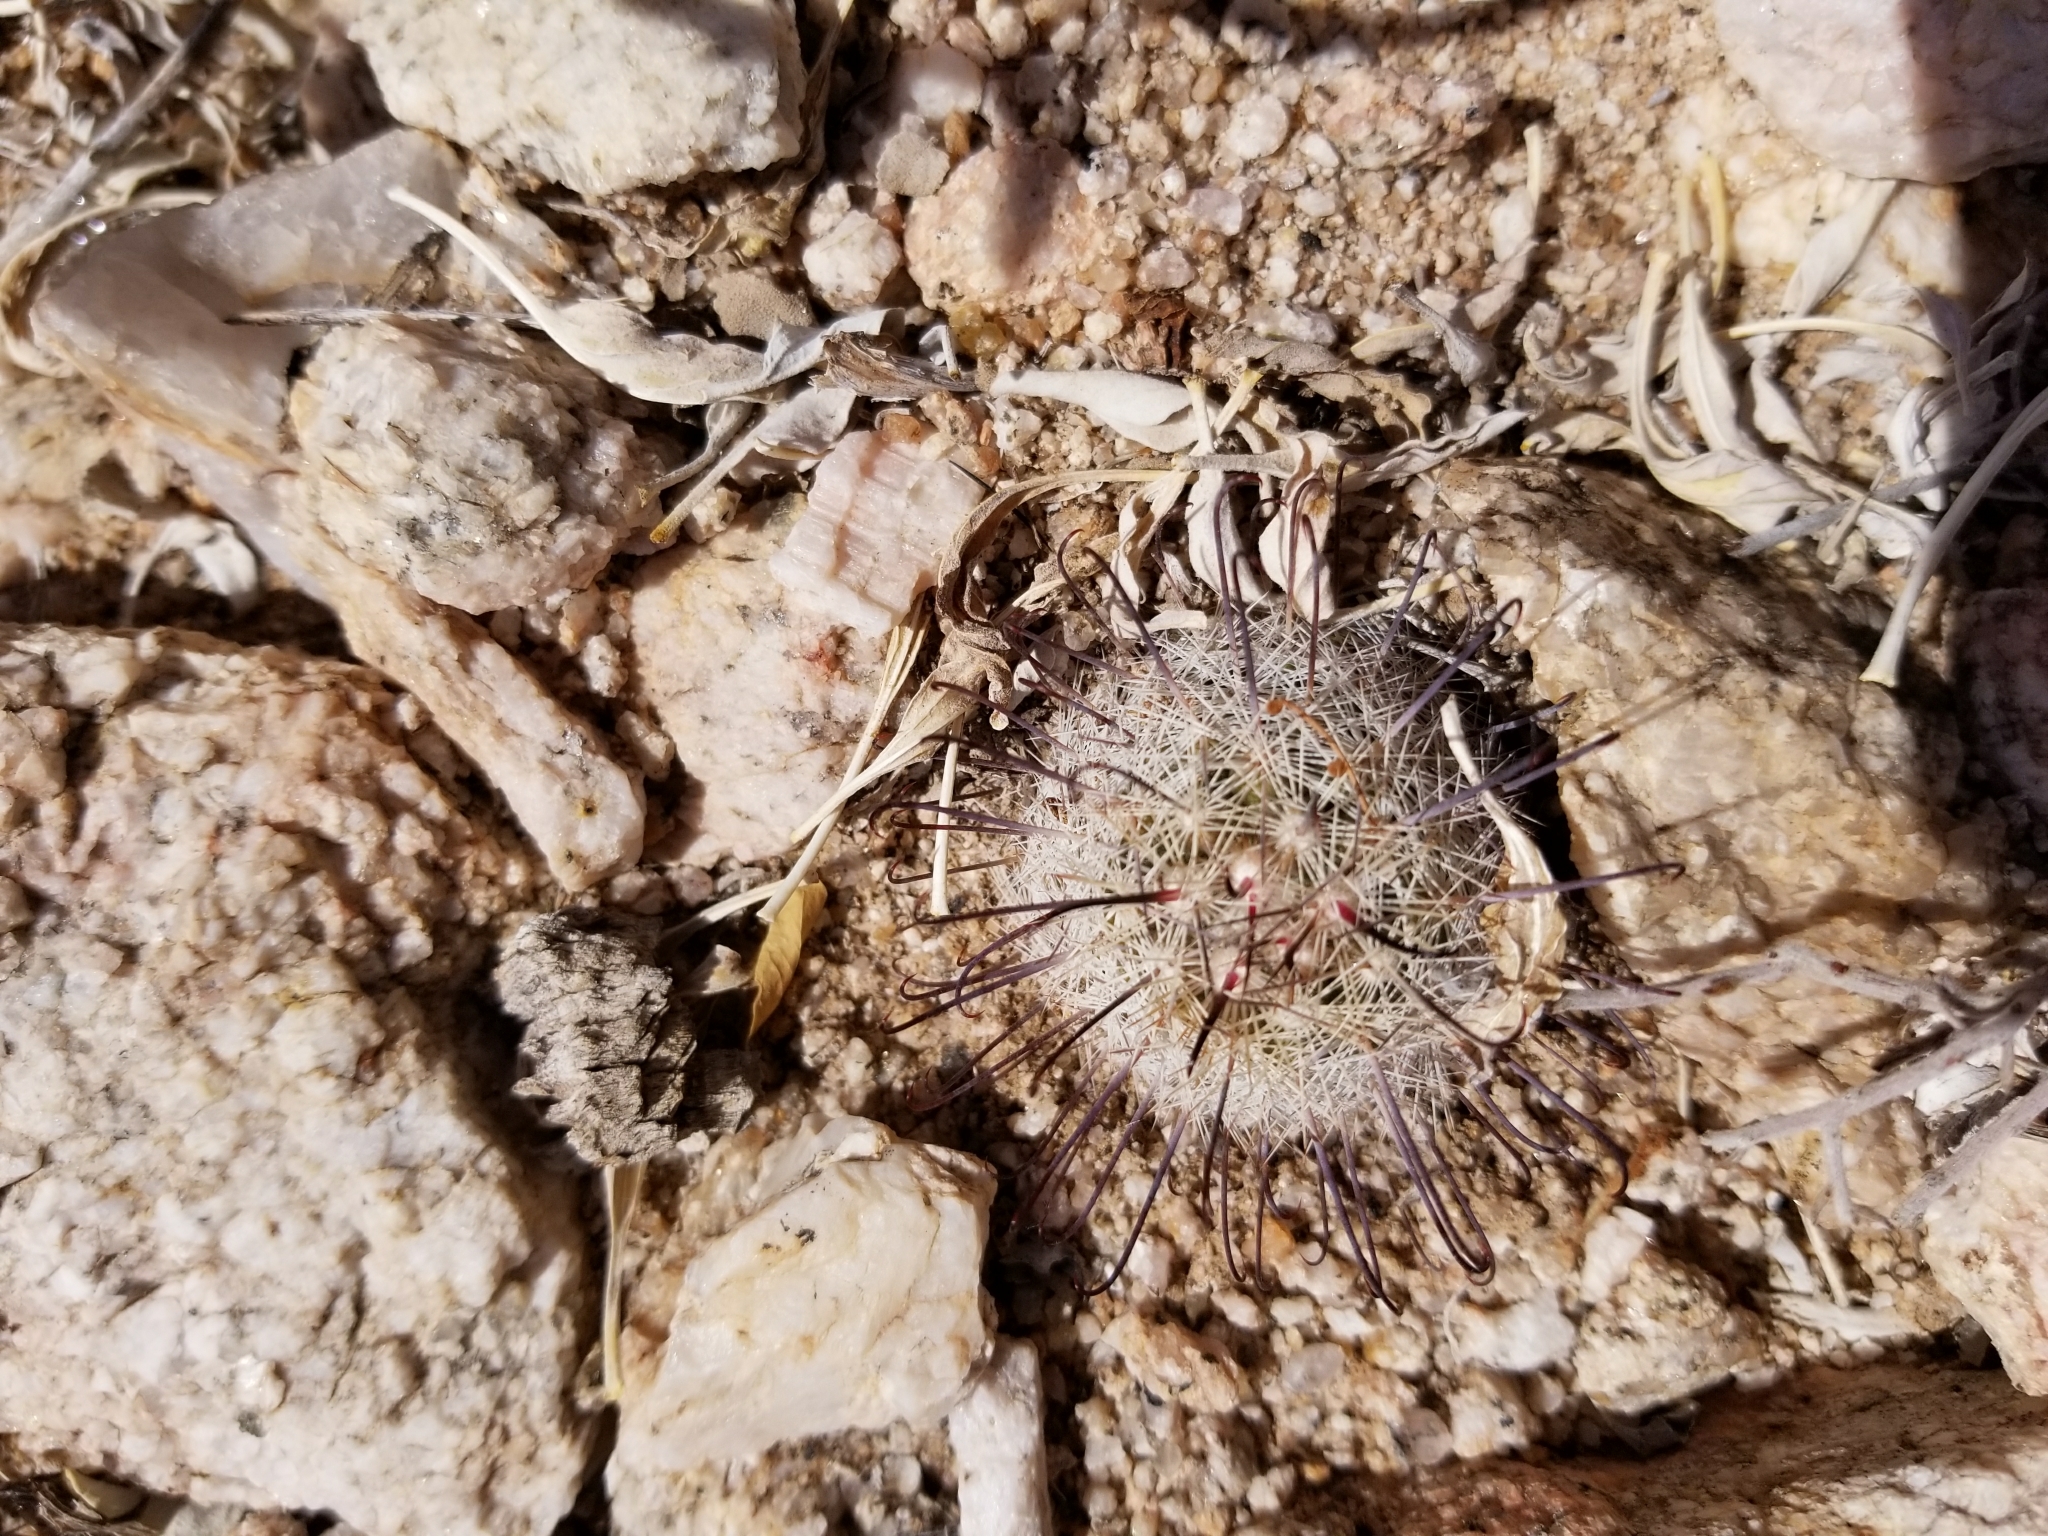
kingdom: Plantae
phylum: Tracheophyta
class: Magnoliopsida
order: Caryophyllales
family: Cactaceae
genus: Cochemiea
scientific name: Cochemiea grahamii
